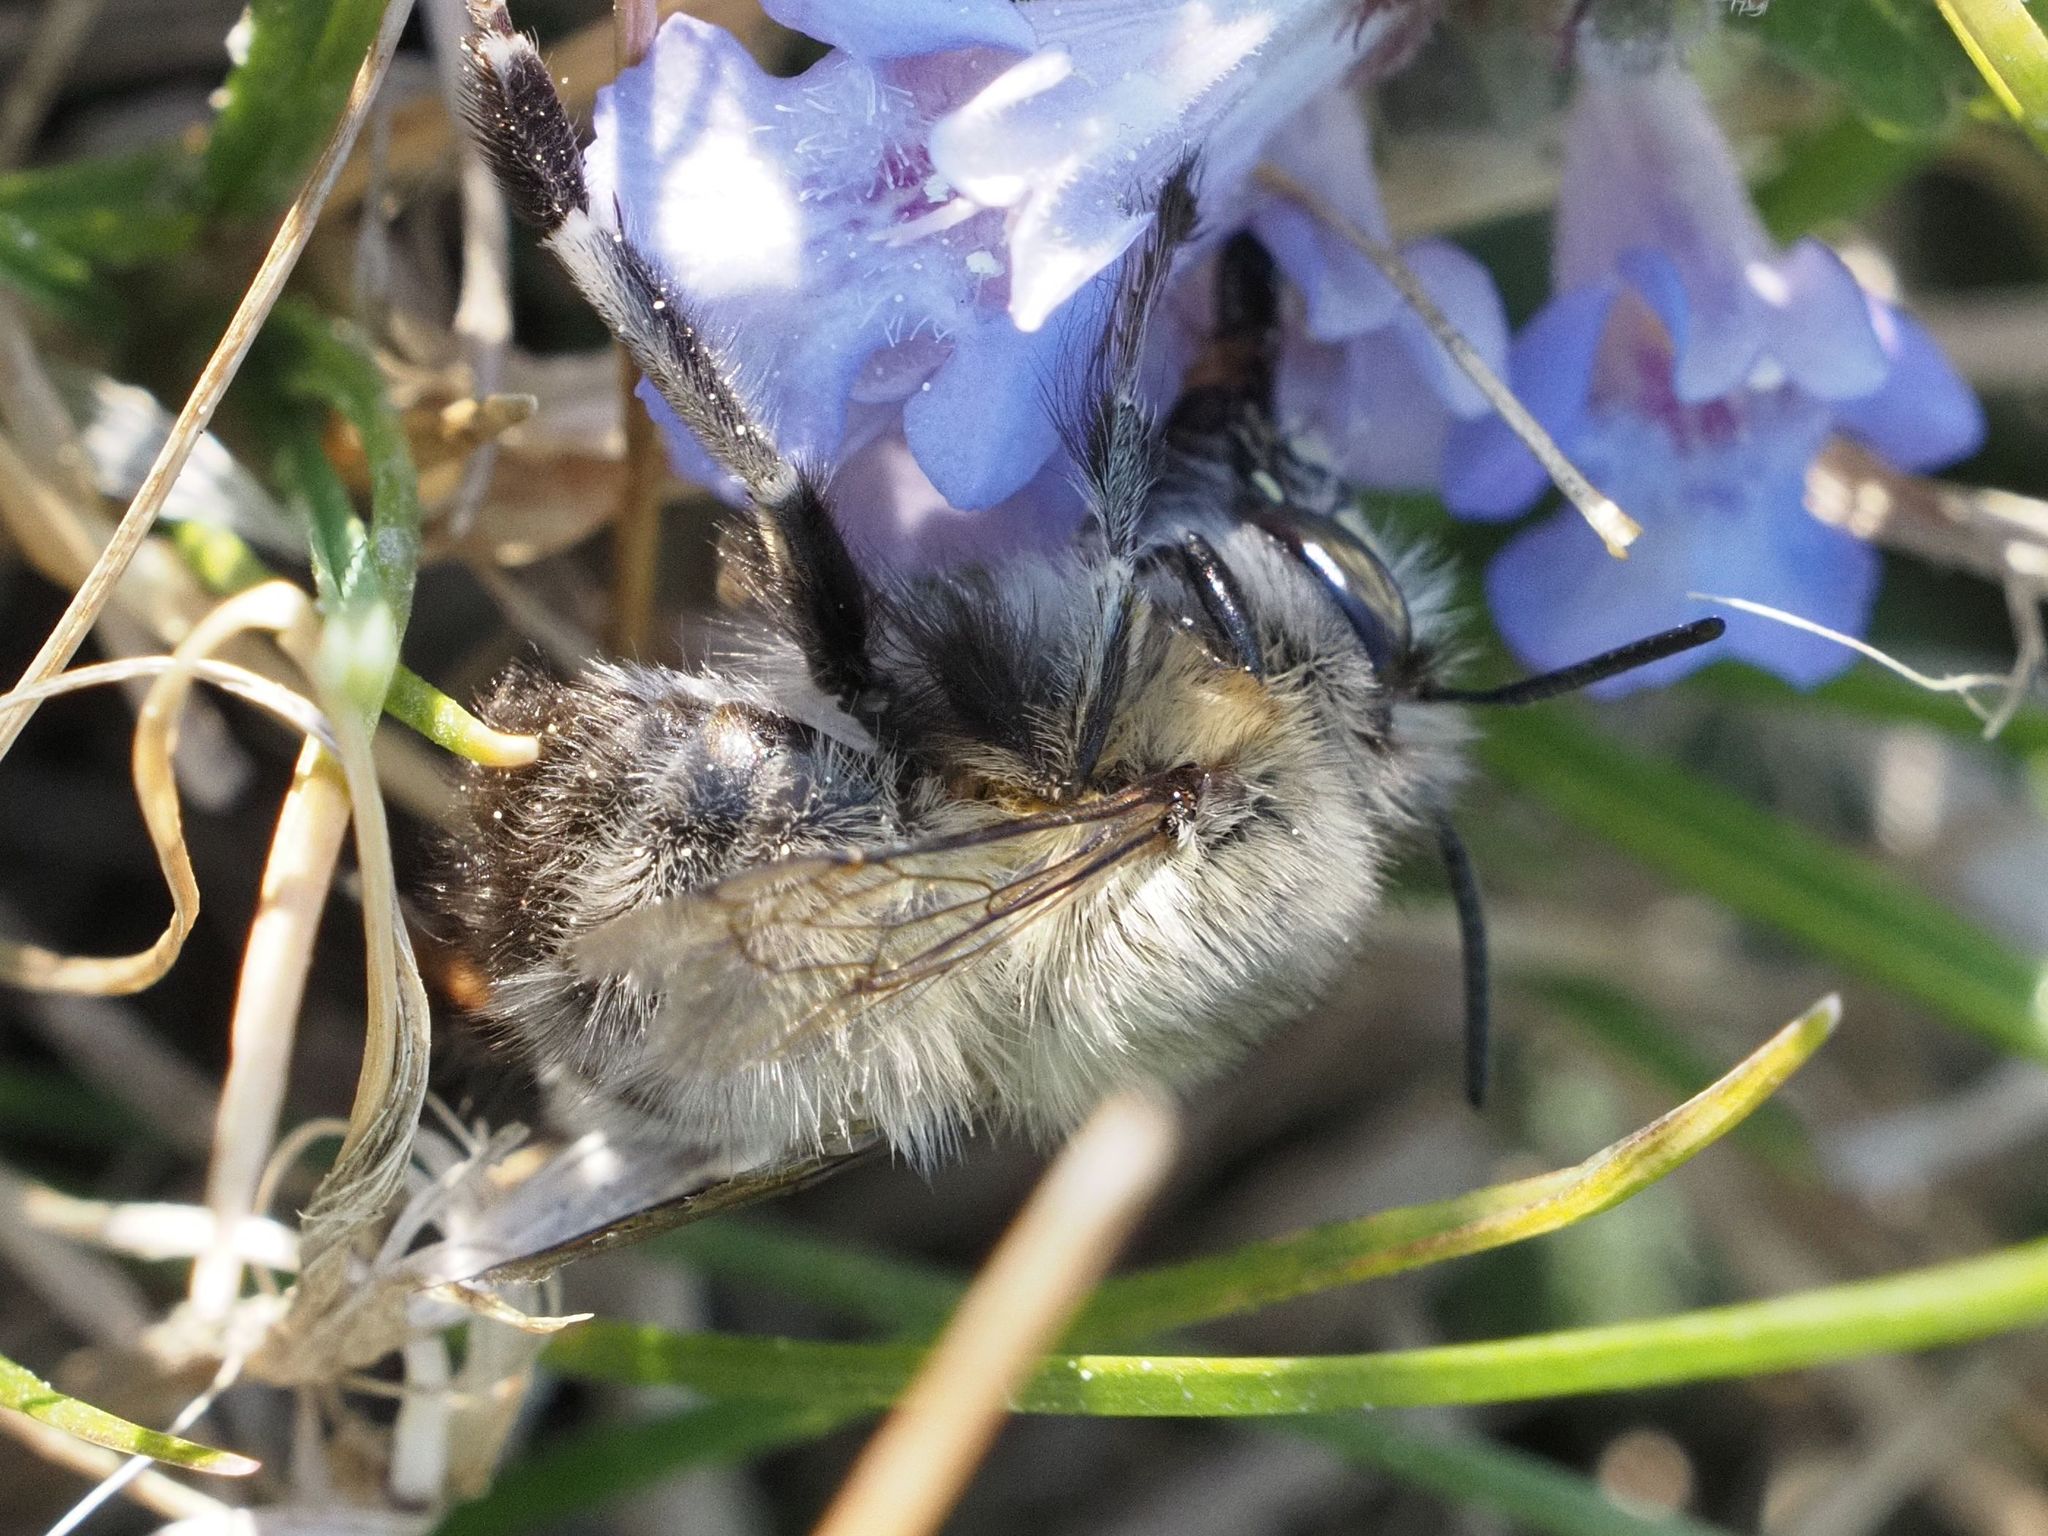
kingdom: Animalia
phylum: Arthropoda
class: Insecta
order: Hymenoptera
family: Apidae
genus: Anthophora
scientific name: Anthophora plumipes
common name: Hairy-footed flower bee
